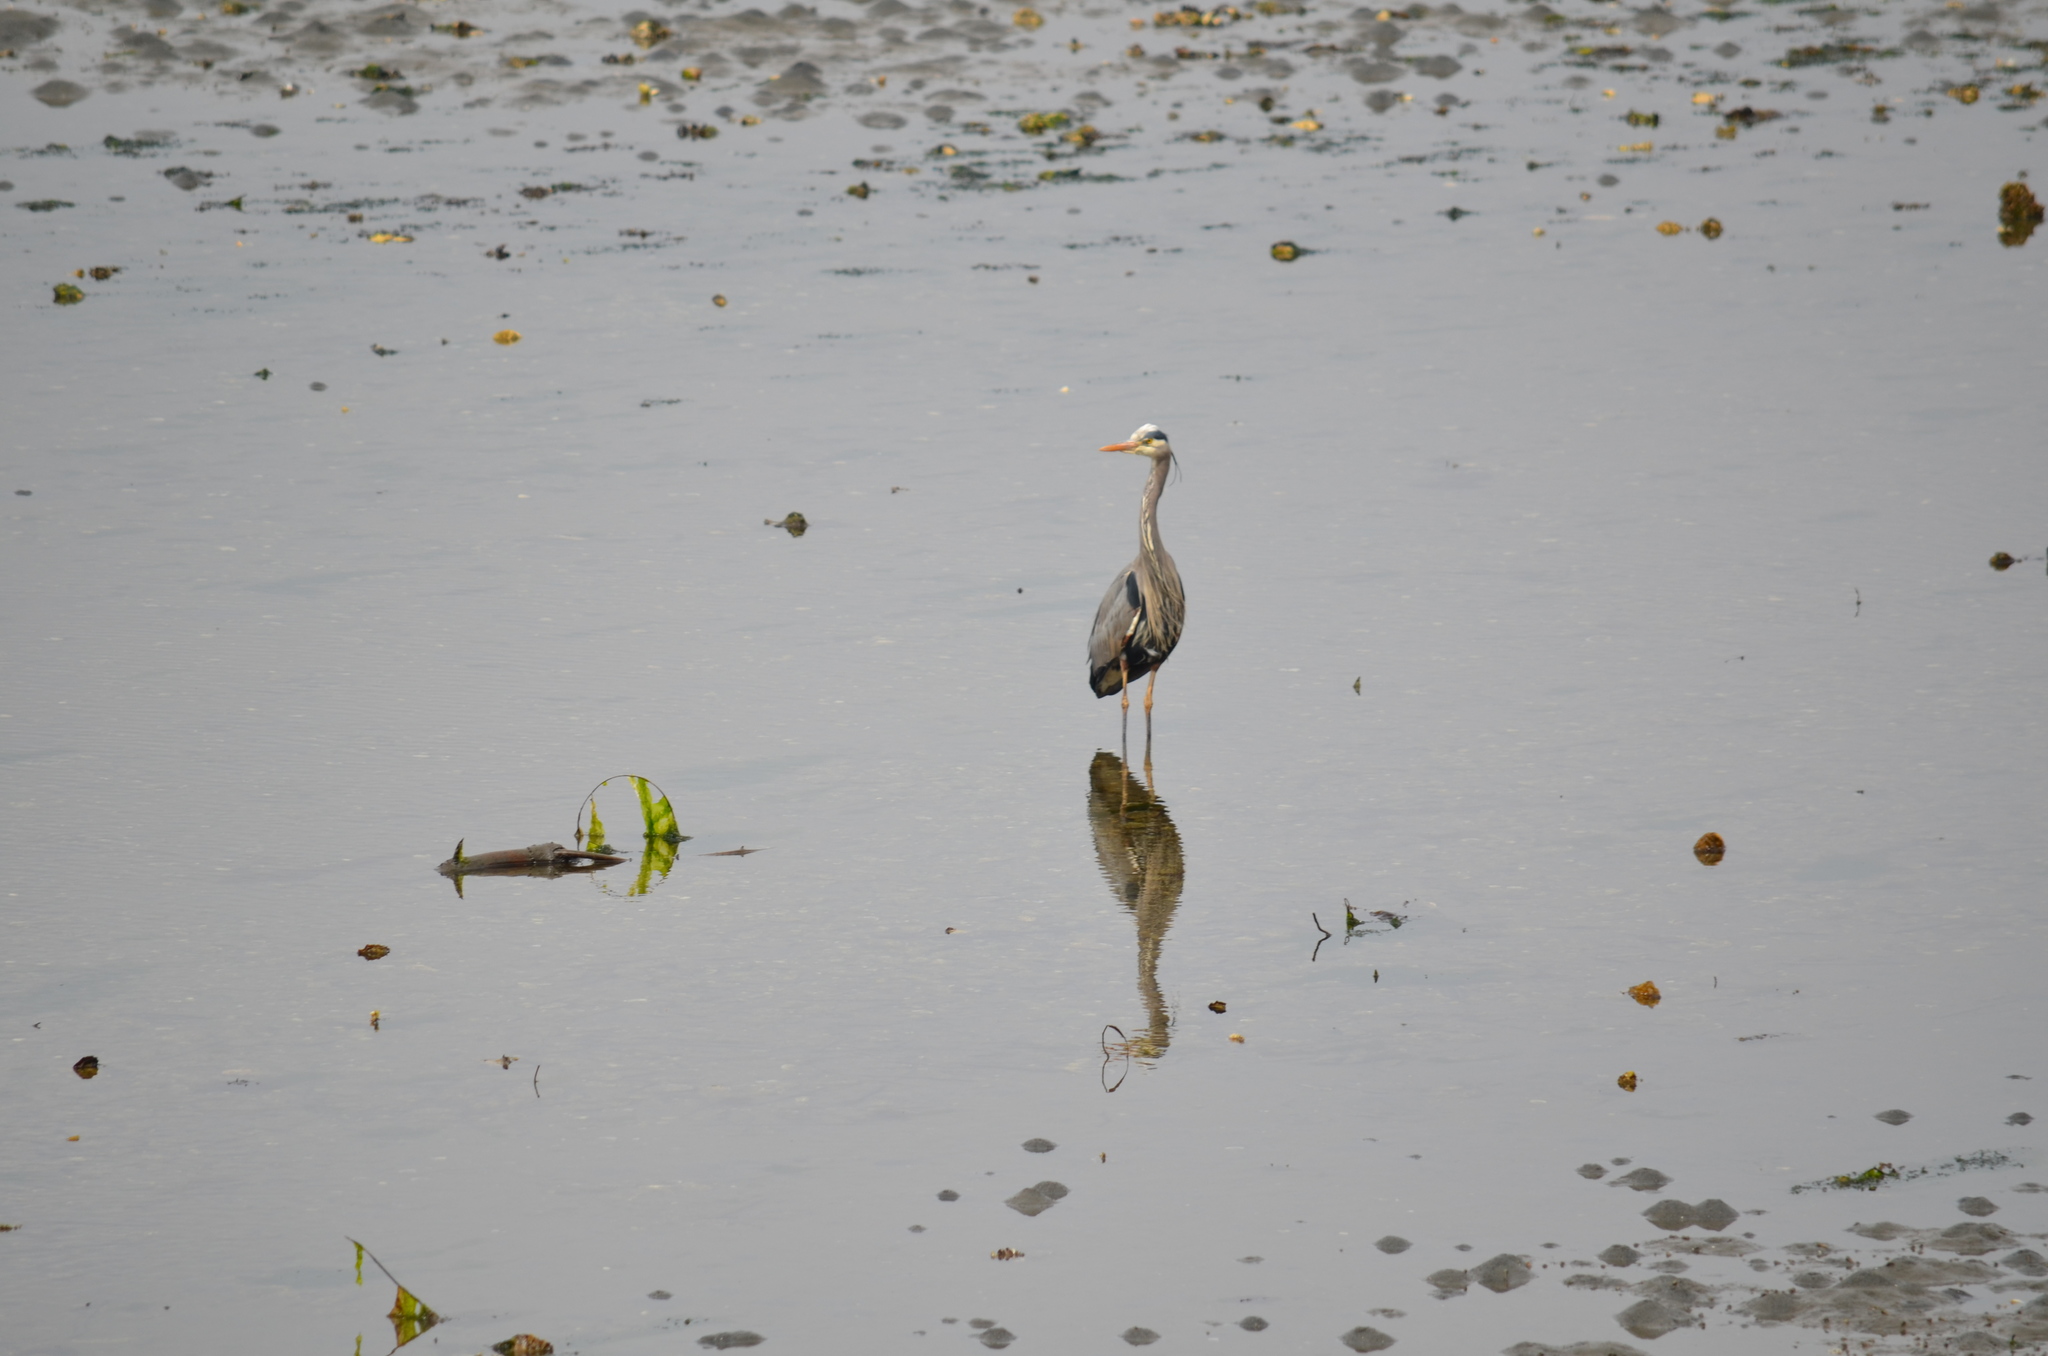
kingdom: Animalia
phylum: Chordata
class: Aves
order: Pelecaniformes
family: Ardeidae
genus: Ardea
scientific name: Ardea herodias
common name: Great blue heron
